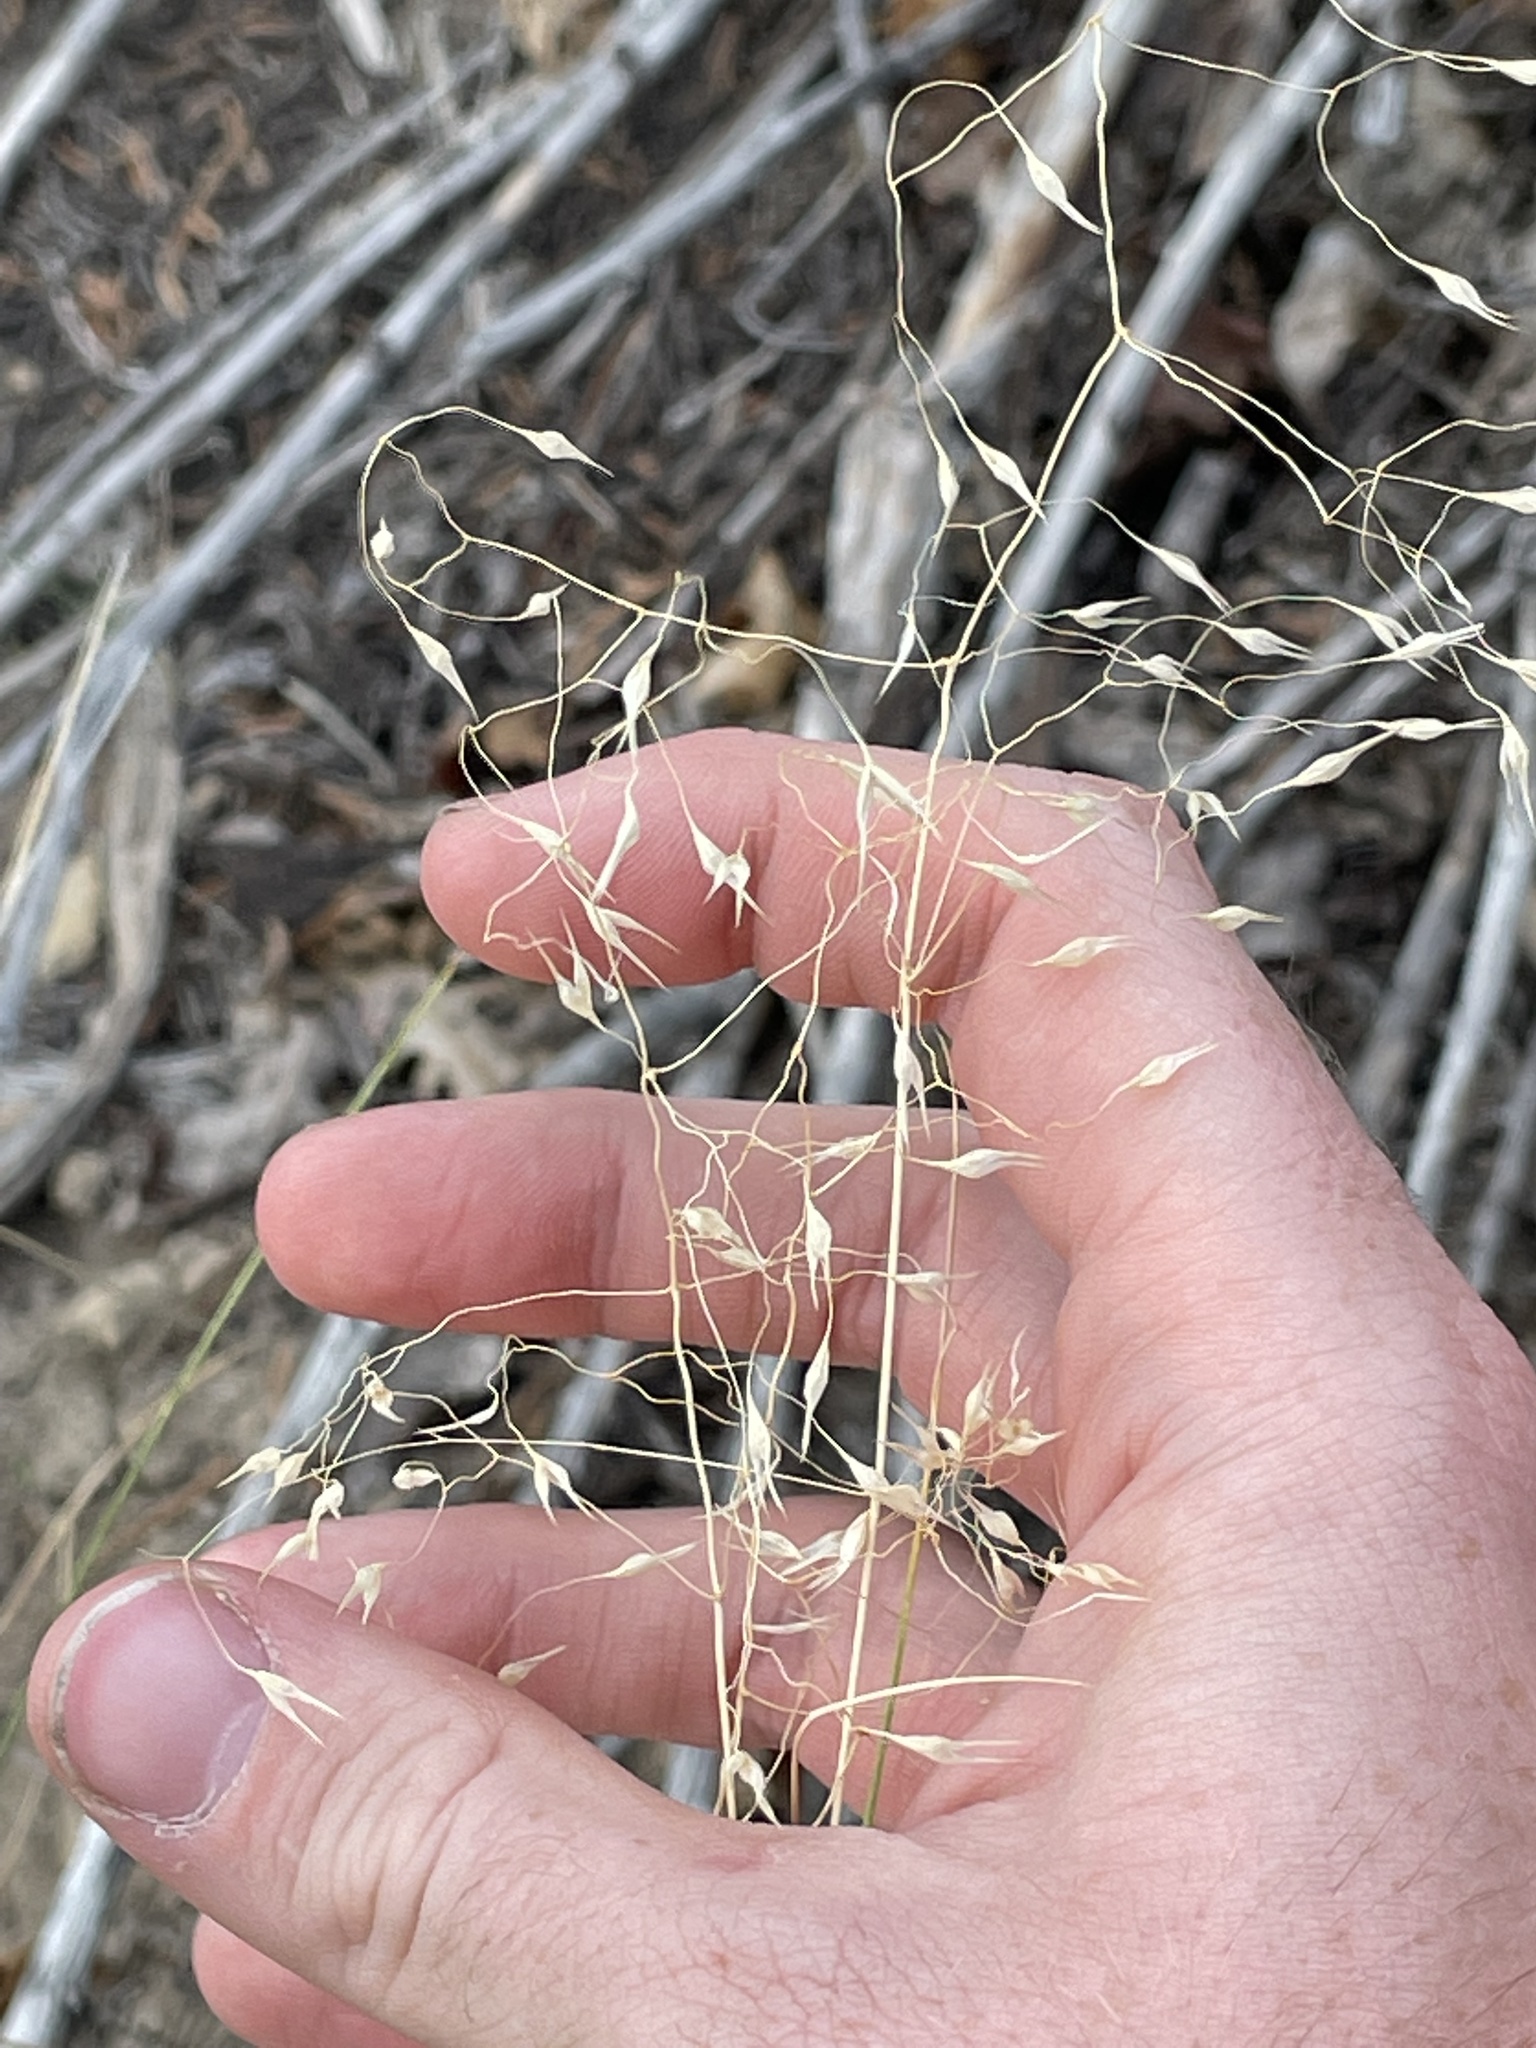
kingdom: Plantae
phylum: Tracheophyta
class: Liliopsida
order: Poales
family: Poaceae
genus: Eriocoma
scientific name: Eriocoma hymenoides
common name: Indian mountain ricegrass
